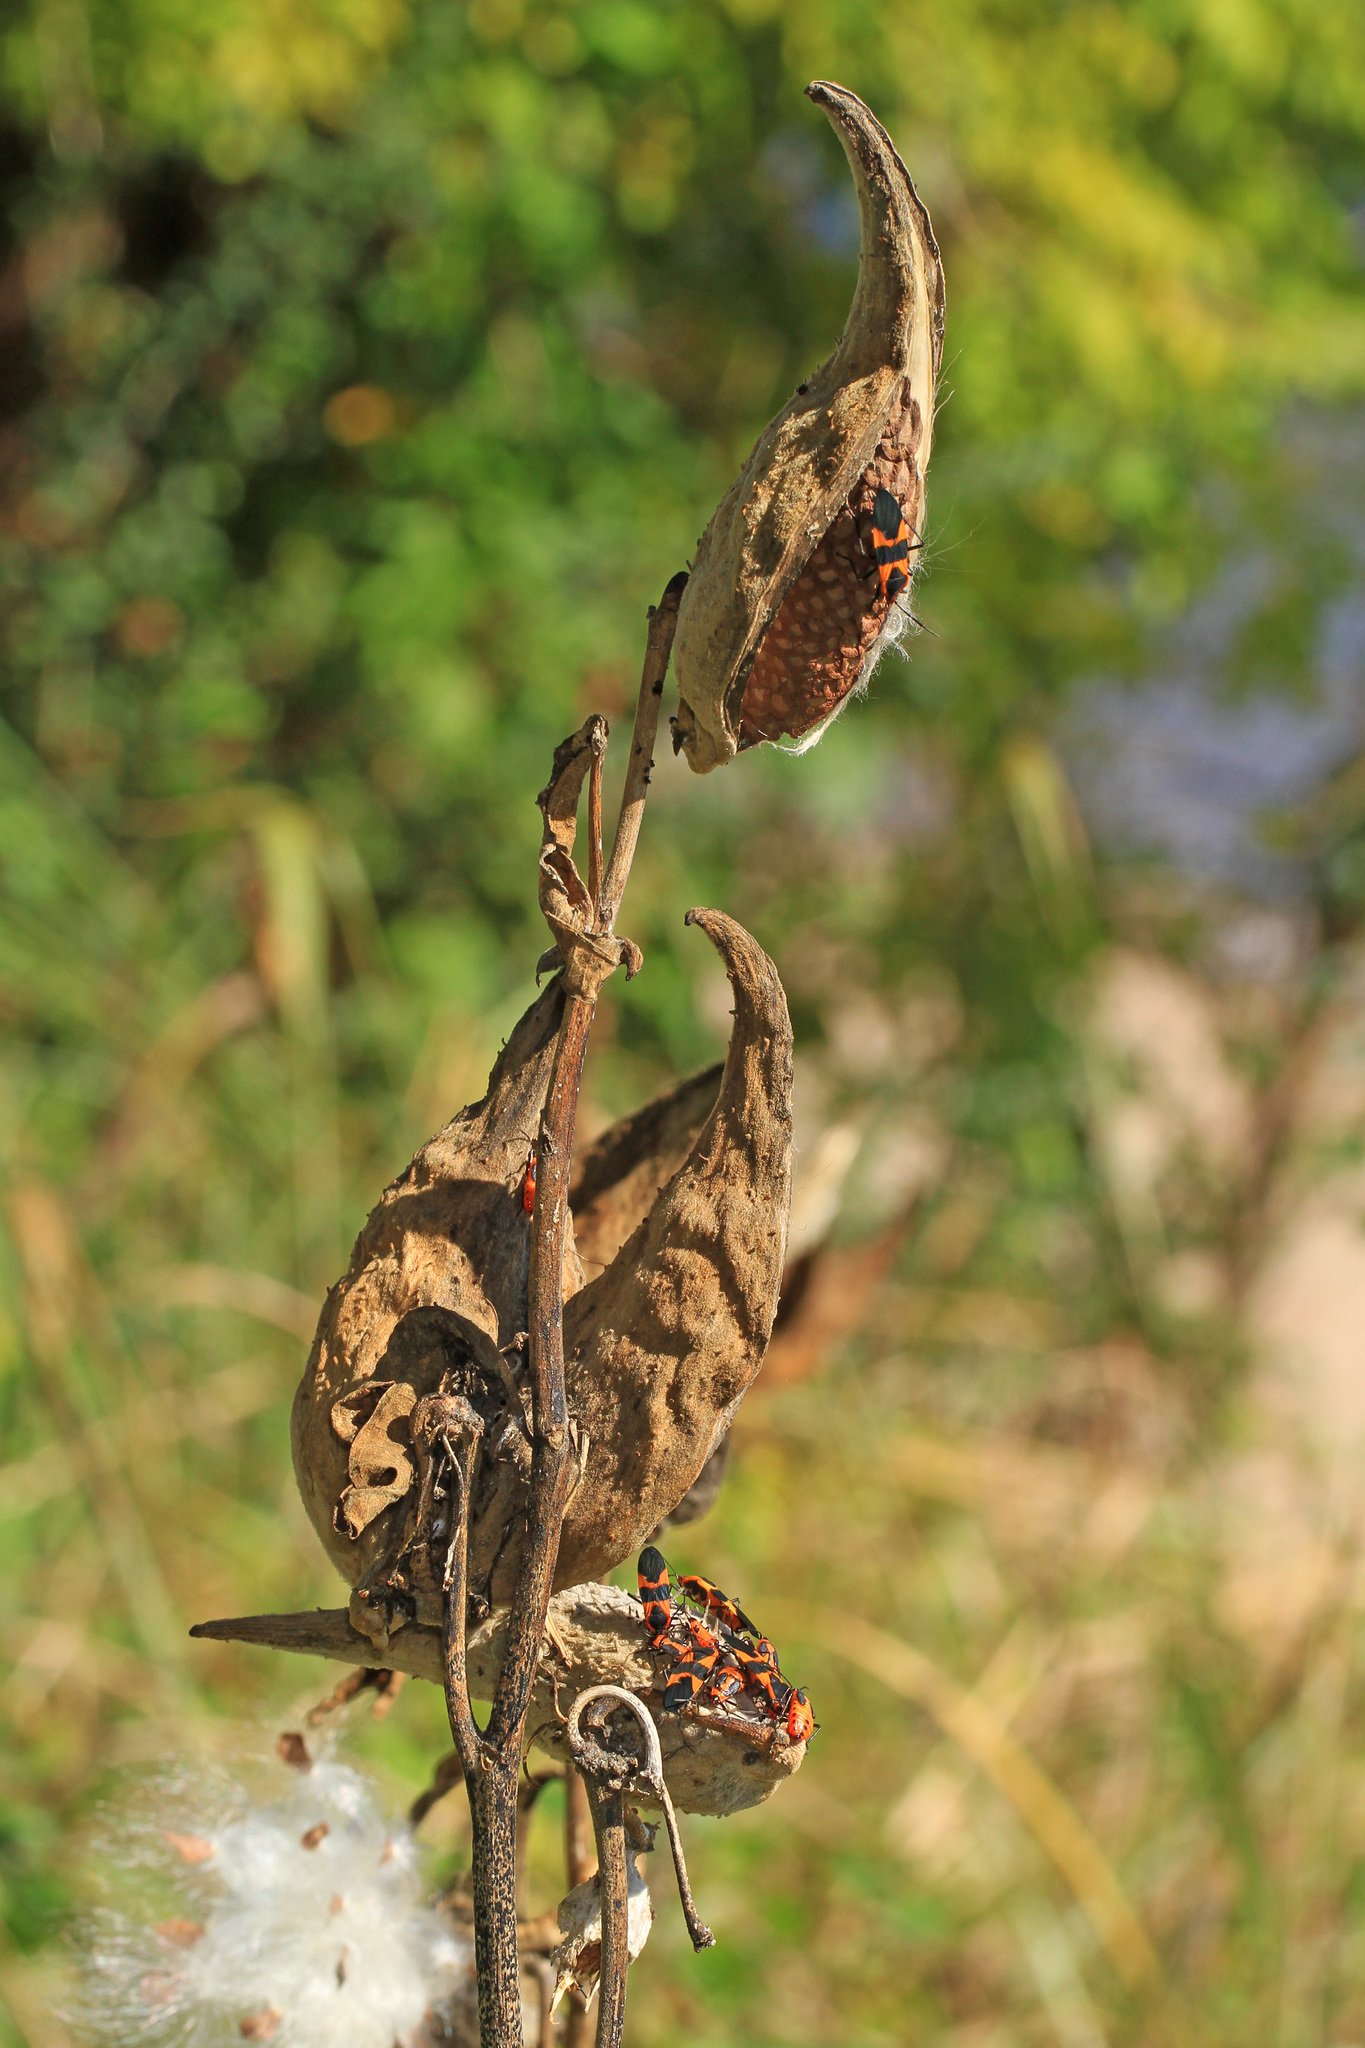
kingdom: Animalia
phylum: Arthropoda
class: Insecta
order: Hemiptera
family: Lygaeidae
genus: Oncopeltus
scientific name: Oncopeltus fasciatus
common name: Large milkweed bug
